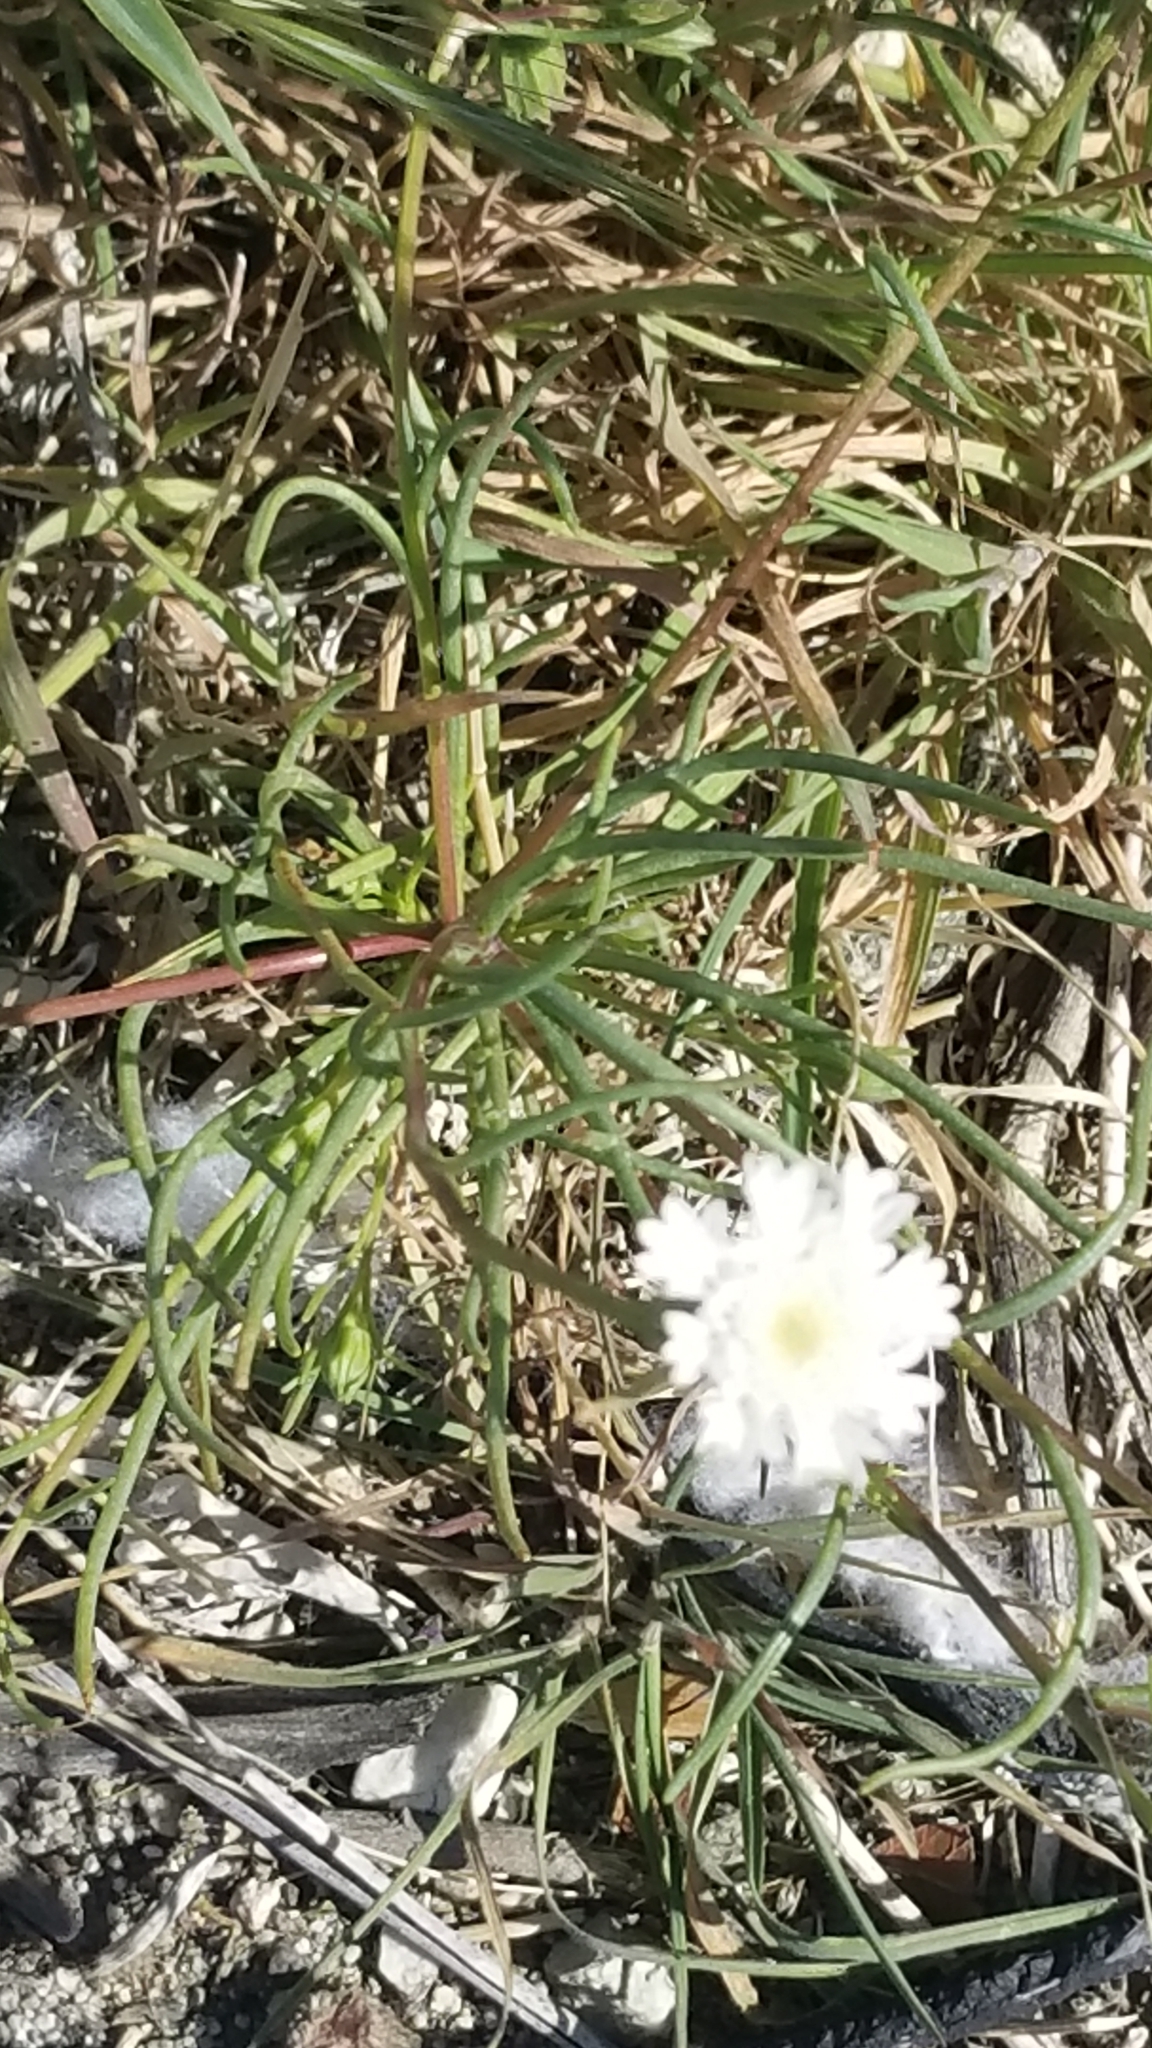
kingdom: Plantae
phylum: Tracheophyta
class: Magnoliopsida
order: Asterales
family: Asteraceae
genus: Chaenactis
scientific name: Chaenactis fremontii
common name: Fremont pincushion
